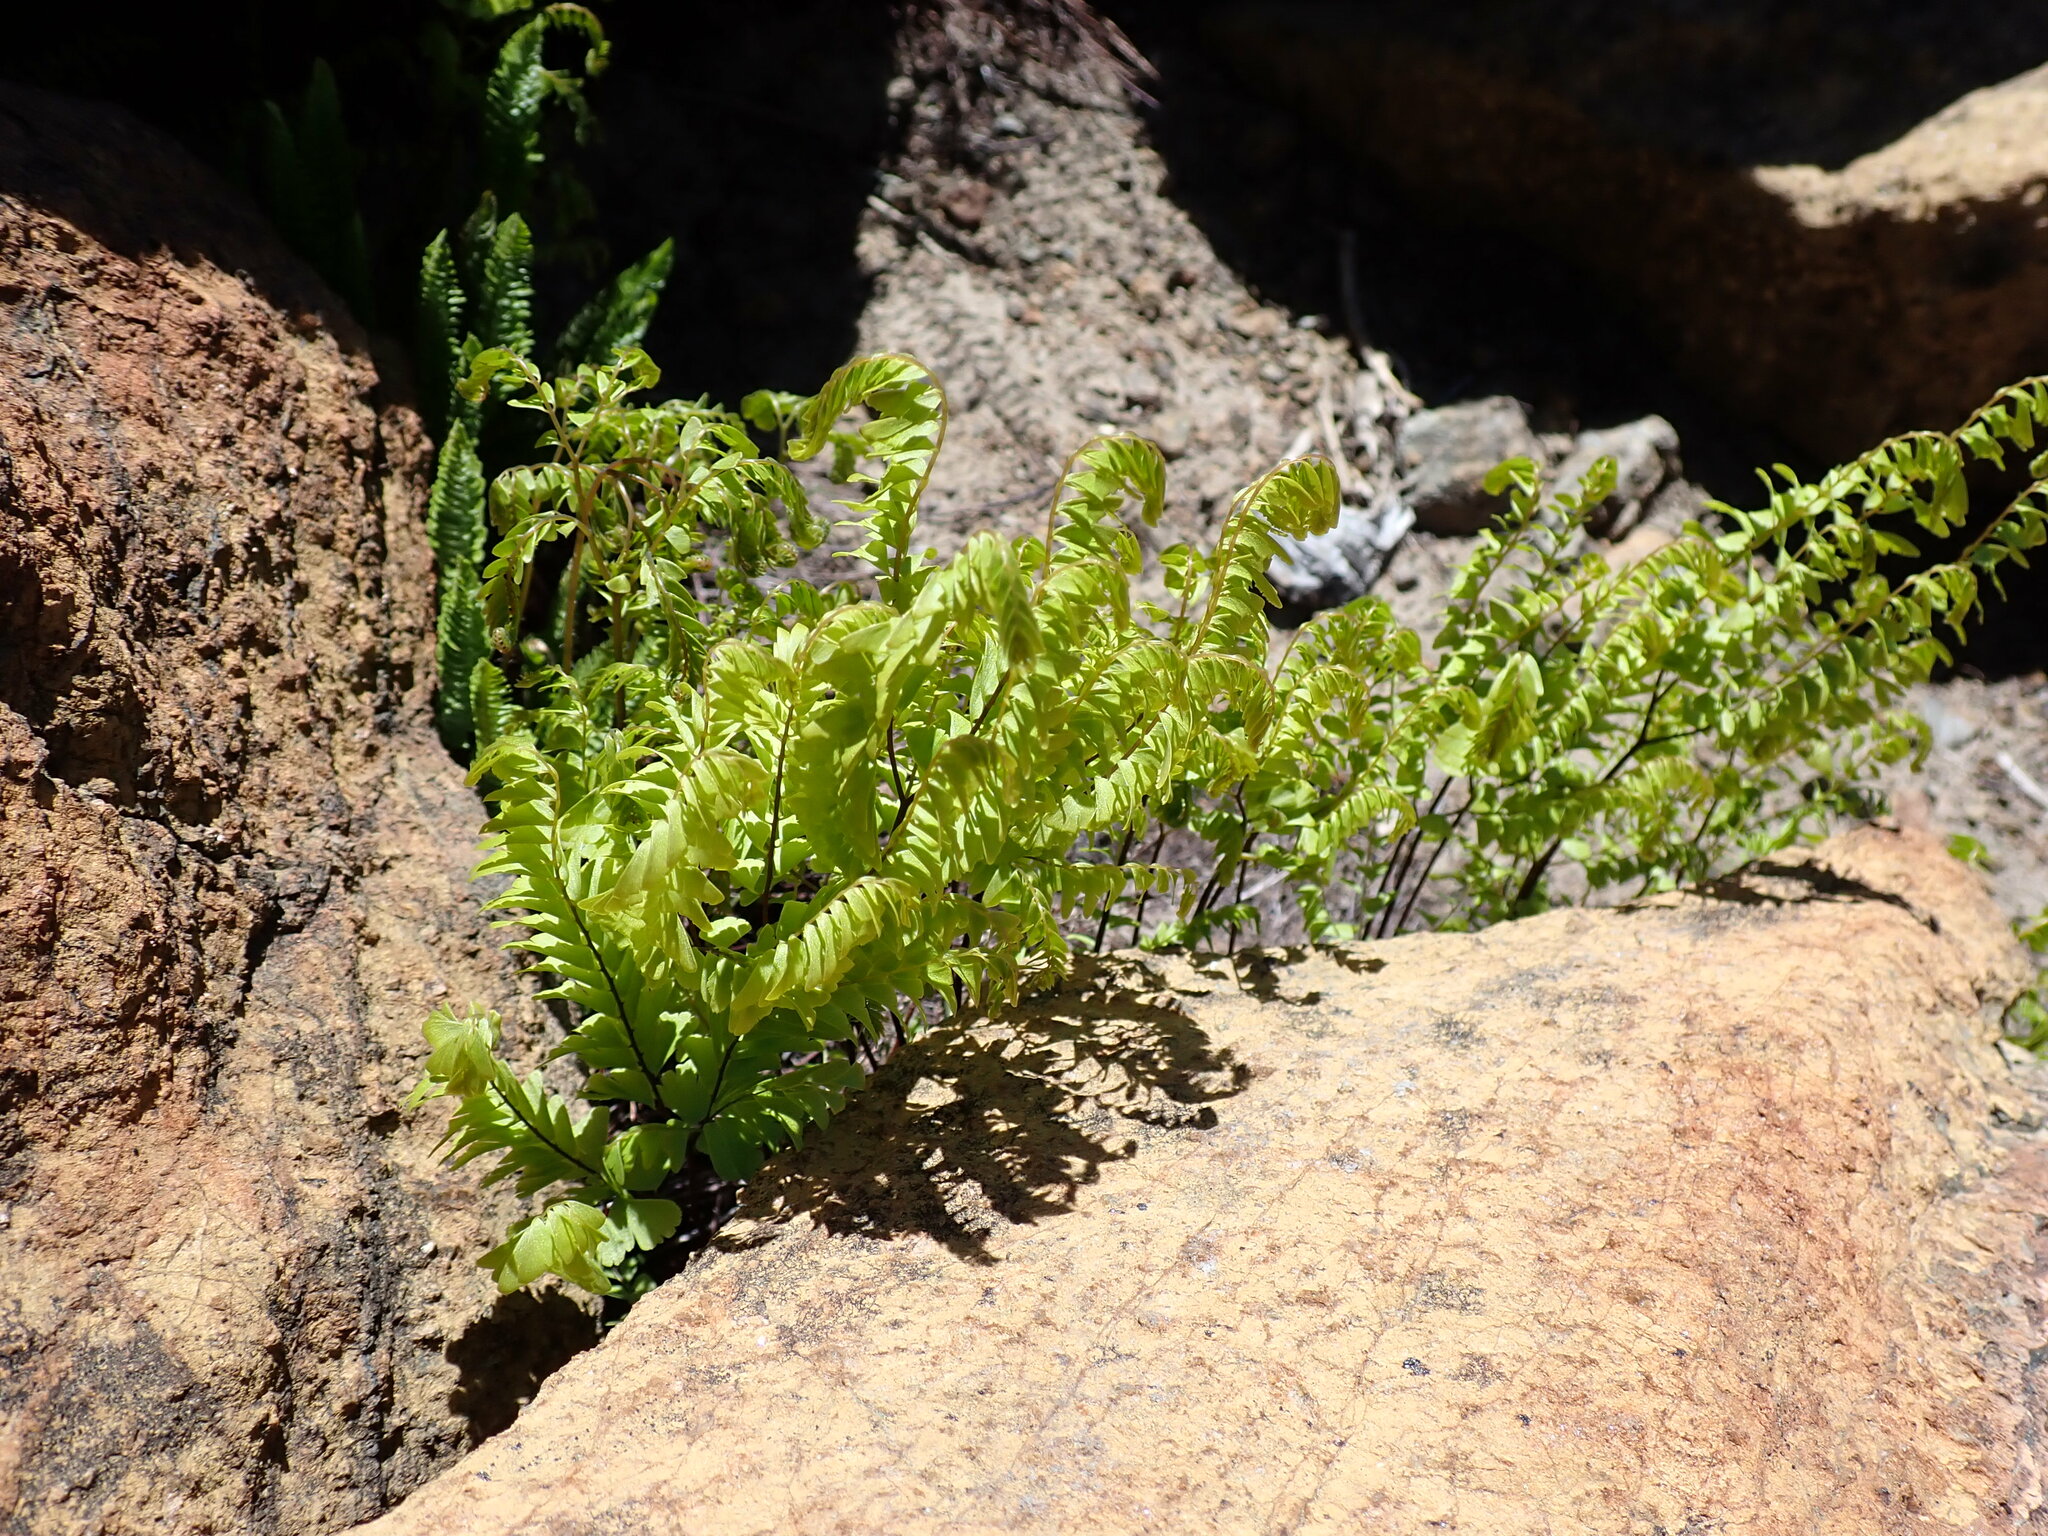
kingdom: Plantae
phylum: Tracheophyta
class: Polypodiopsida
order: Polypodiales
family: Pteridaceae
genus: Adiantum
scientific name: Adiantum aleuticum
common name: Aleutian maidenhair fern
